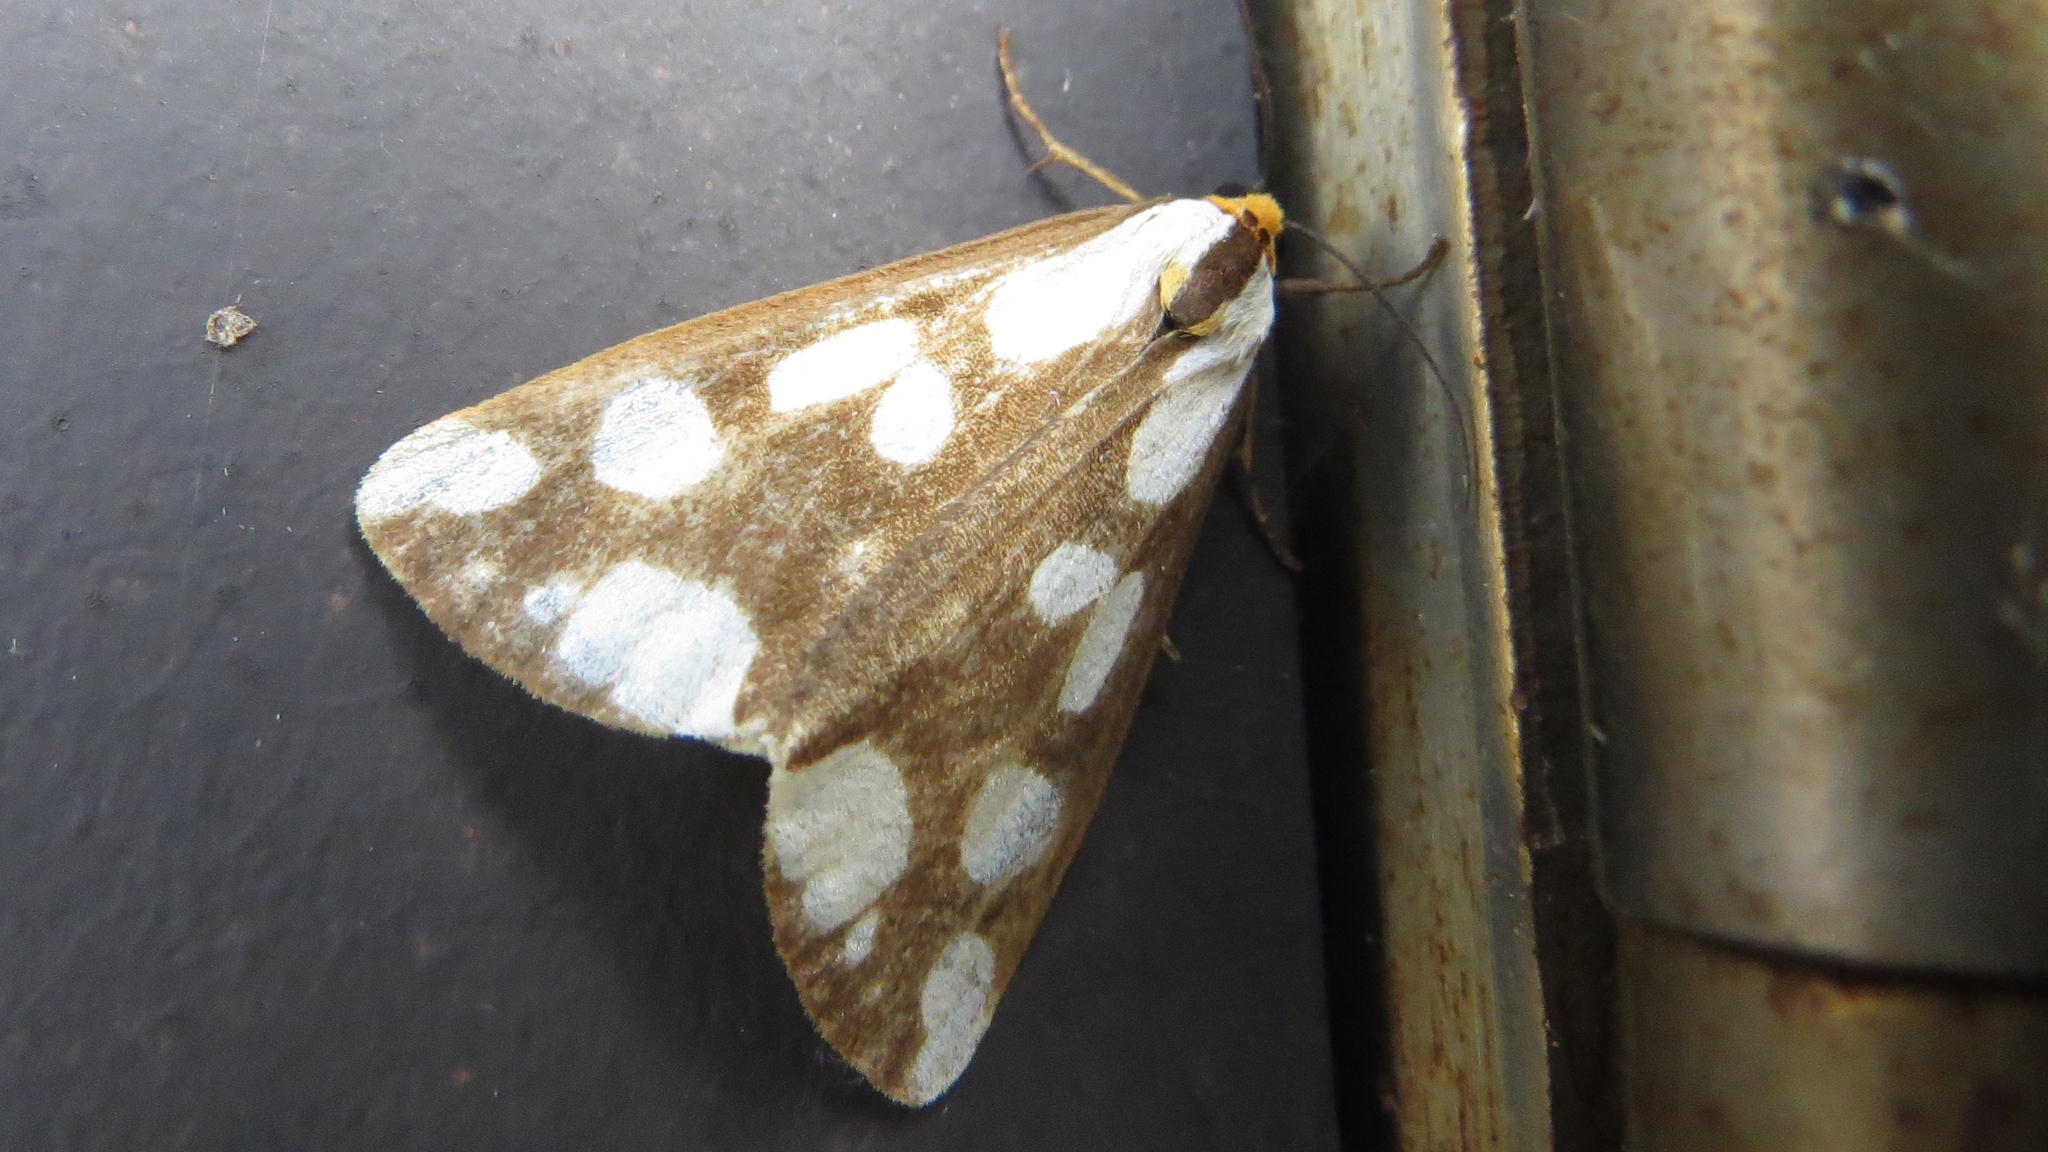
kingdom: Animalia
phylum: Arthropoda
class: Insecta
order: Lepidoptera
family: Erebidae
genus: Haploa
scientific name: Haploa confusa
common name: Confused haploa moth
